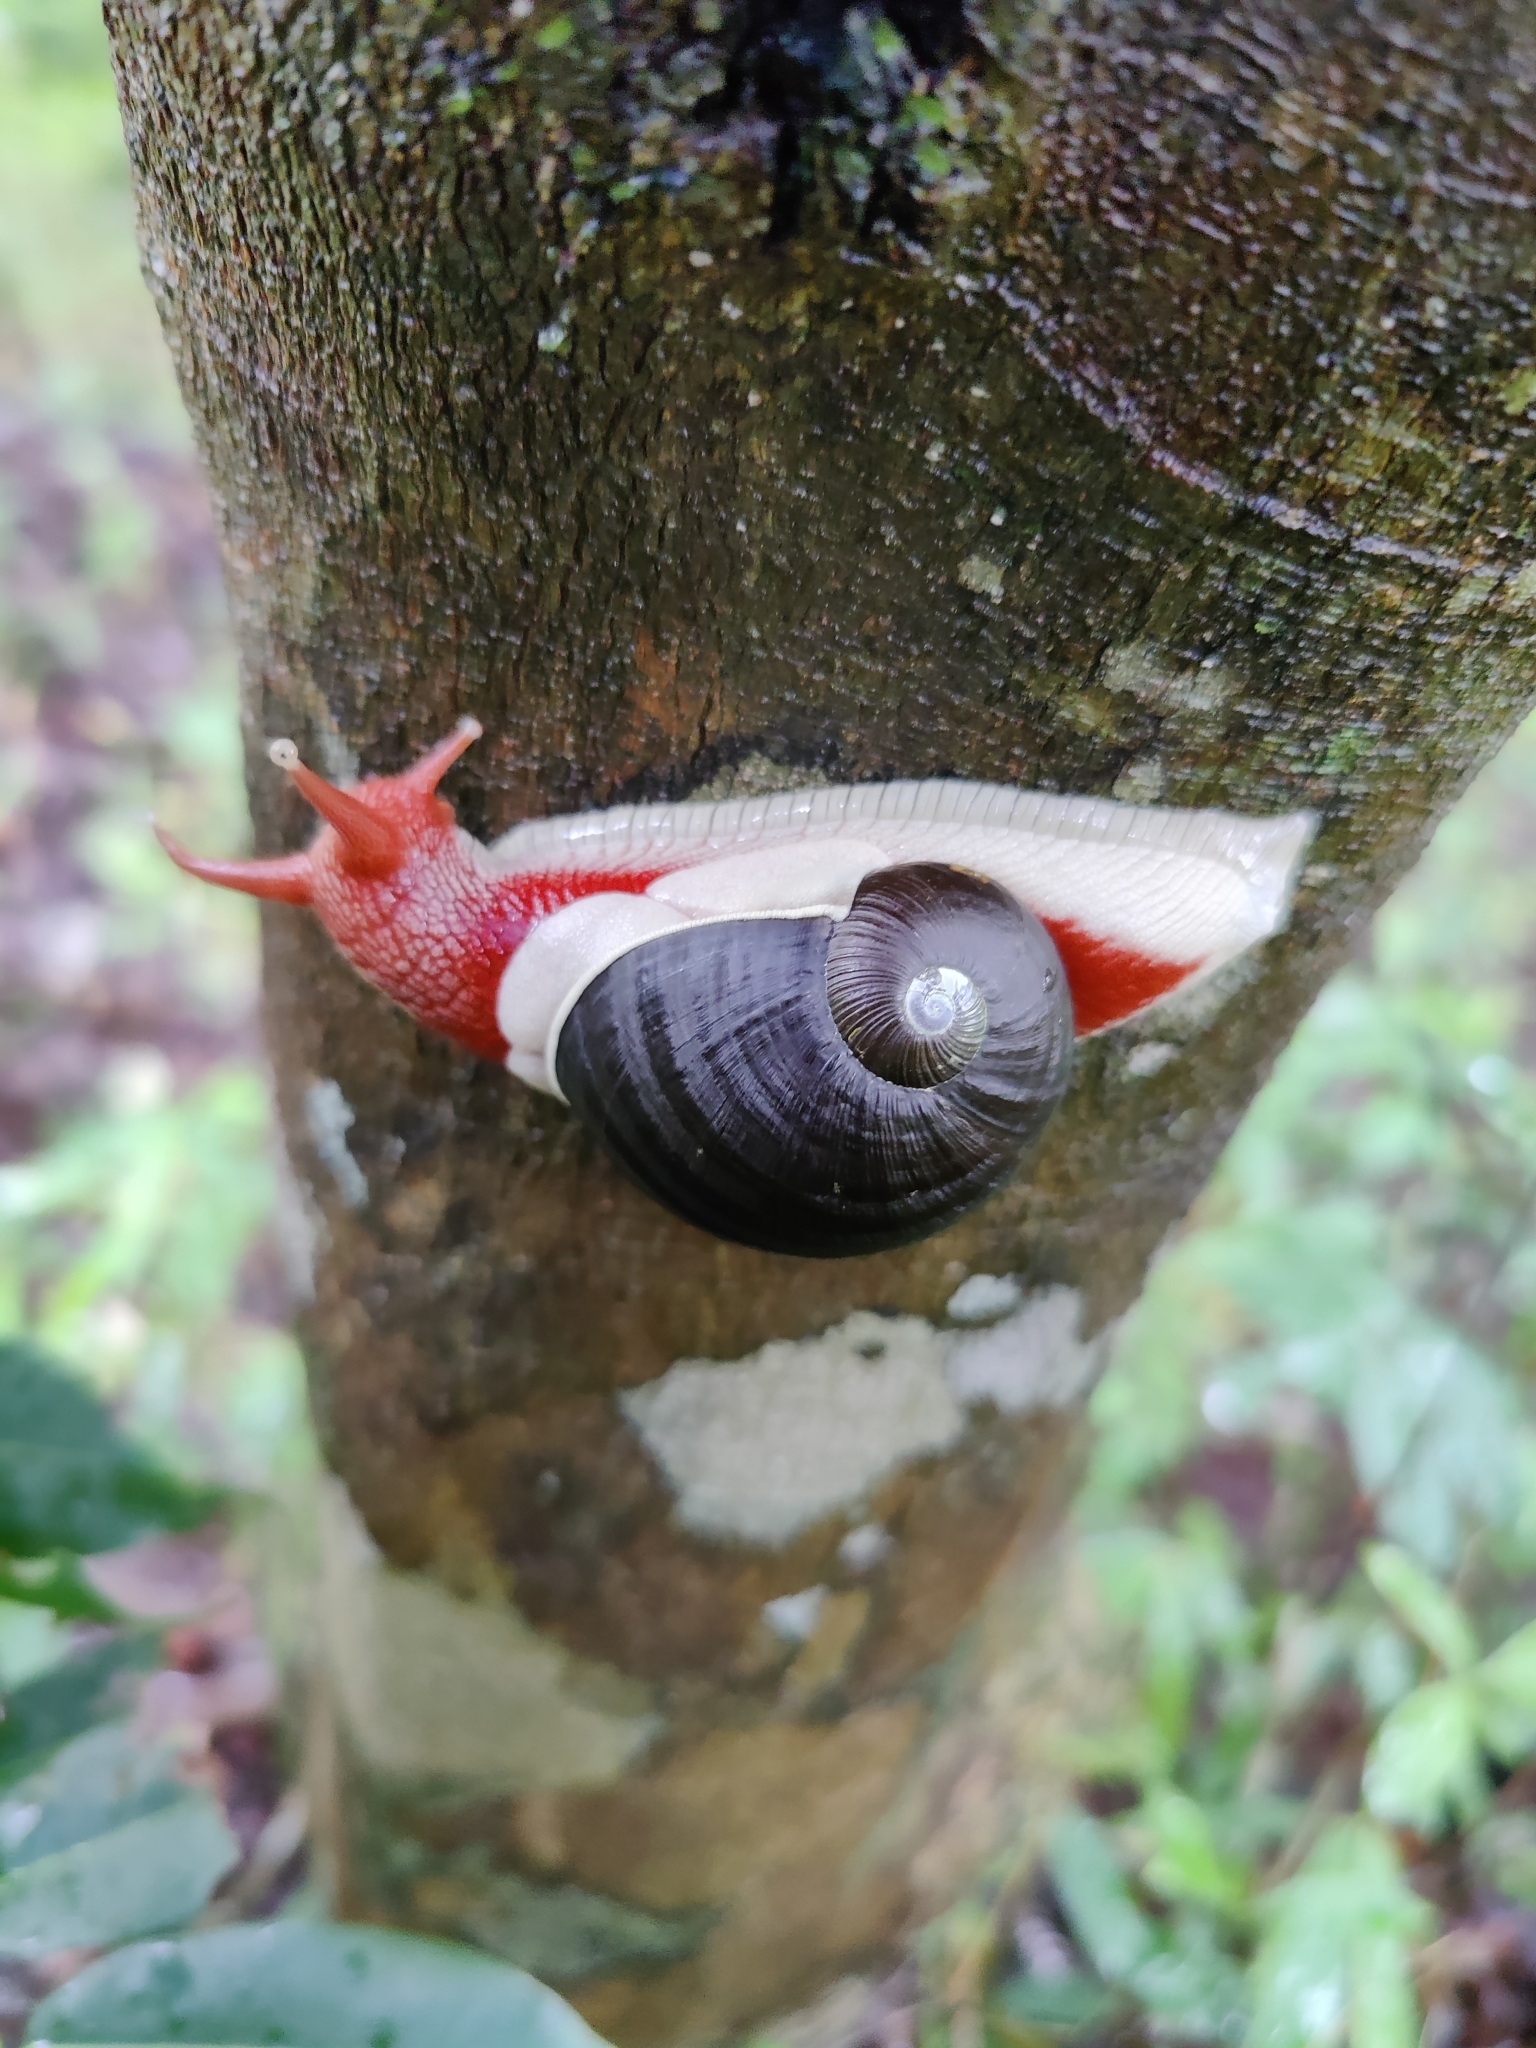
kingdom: Animalia
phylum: Mollusca
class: Gastropoda
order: Stylommatophora
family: Ariophantidae
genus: Indrella
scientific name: Indrella ampulla
